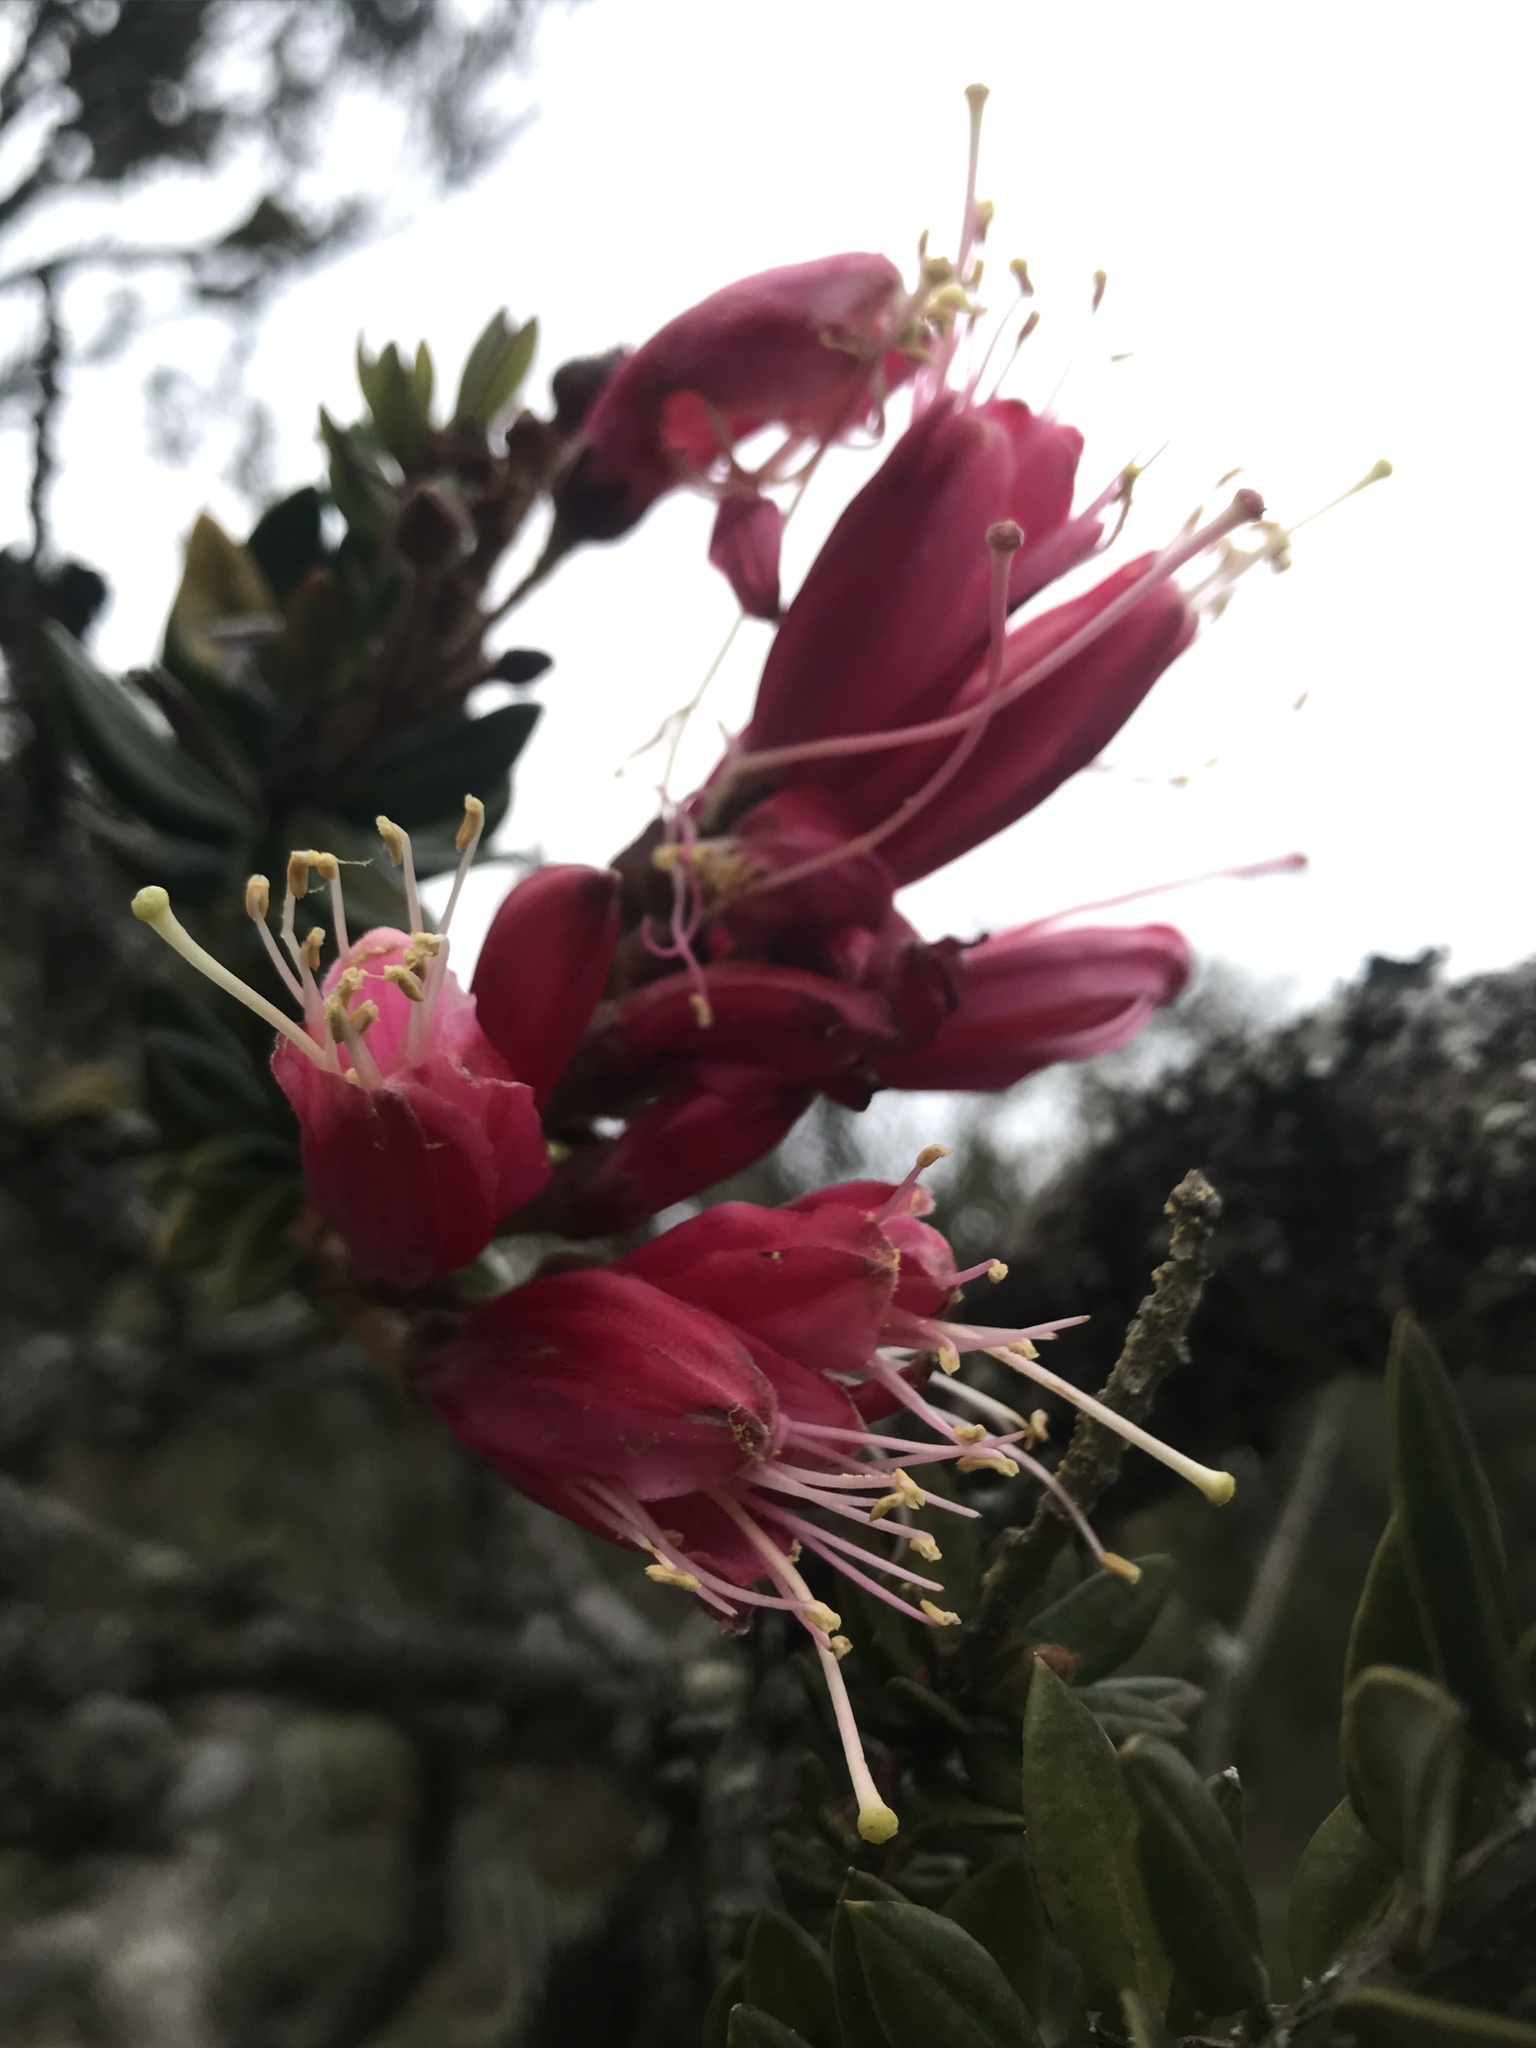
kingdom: Plantae
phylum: Tracheophyta
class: Magnoliopsida
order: Ericales
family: Ericaceae
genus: Bejaria
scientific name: Bejaria resinosa
